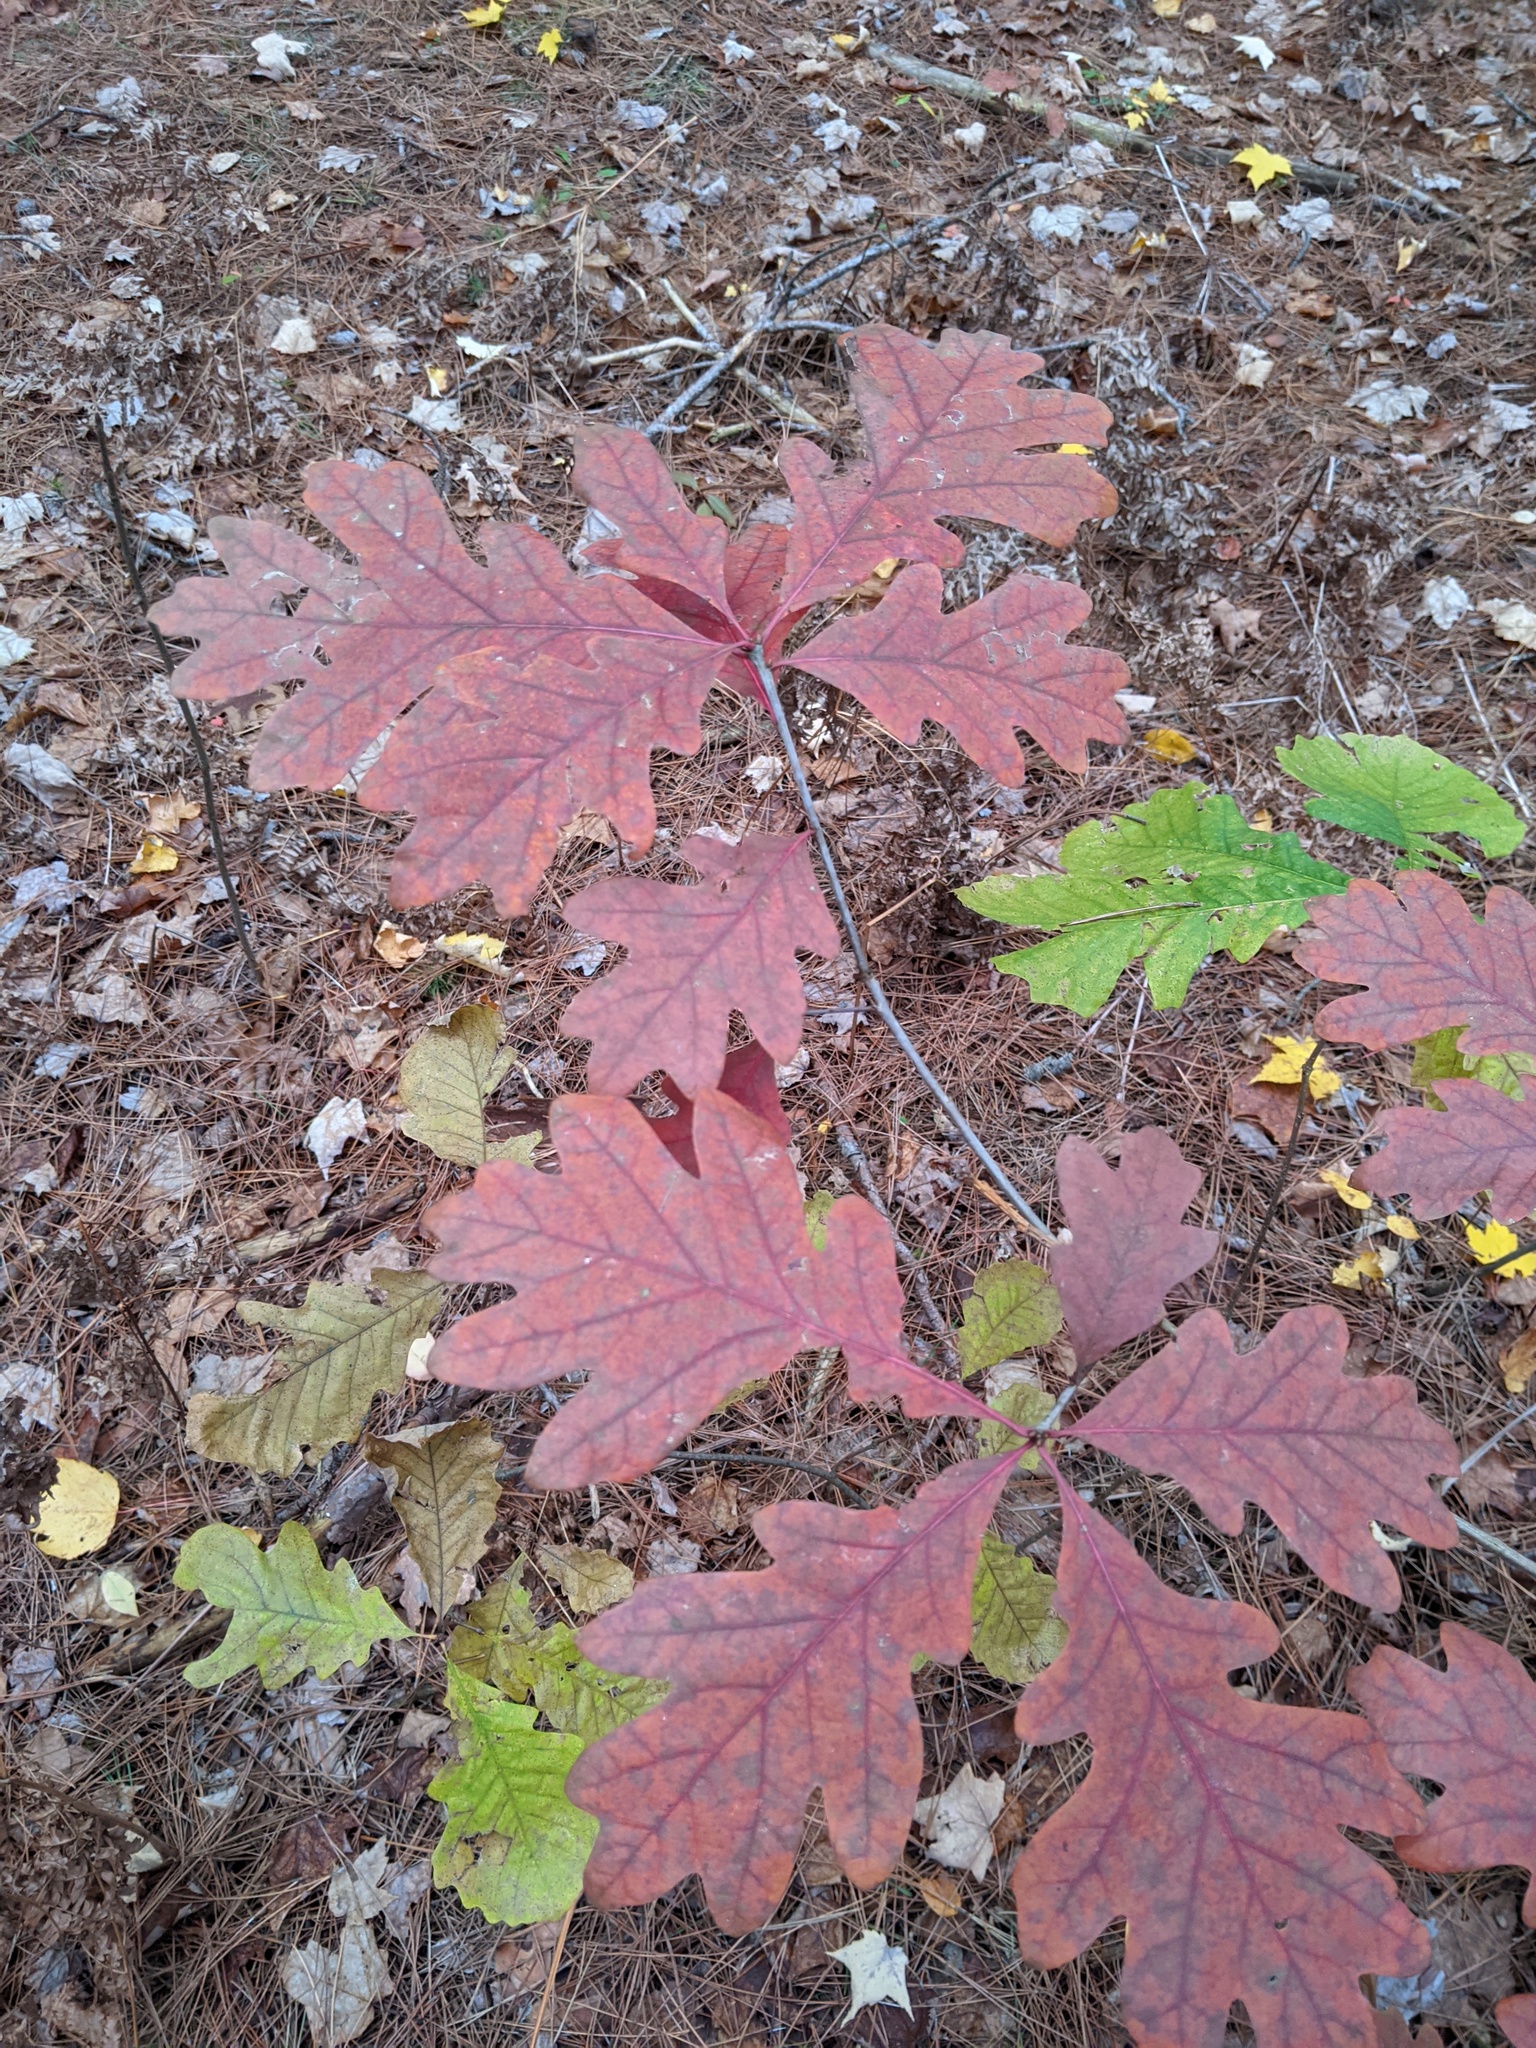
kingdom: Plantae
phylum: Tracheophyta
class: Magnoliopsida
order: Fagales
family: Fagaceae
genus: Quercus
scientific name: Quercus alba
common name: White oak
